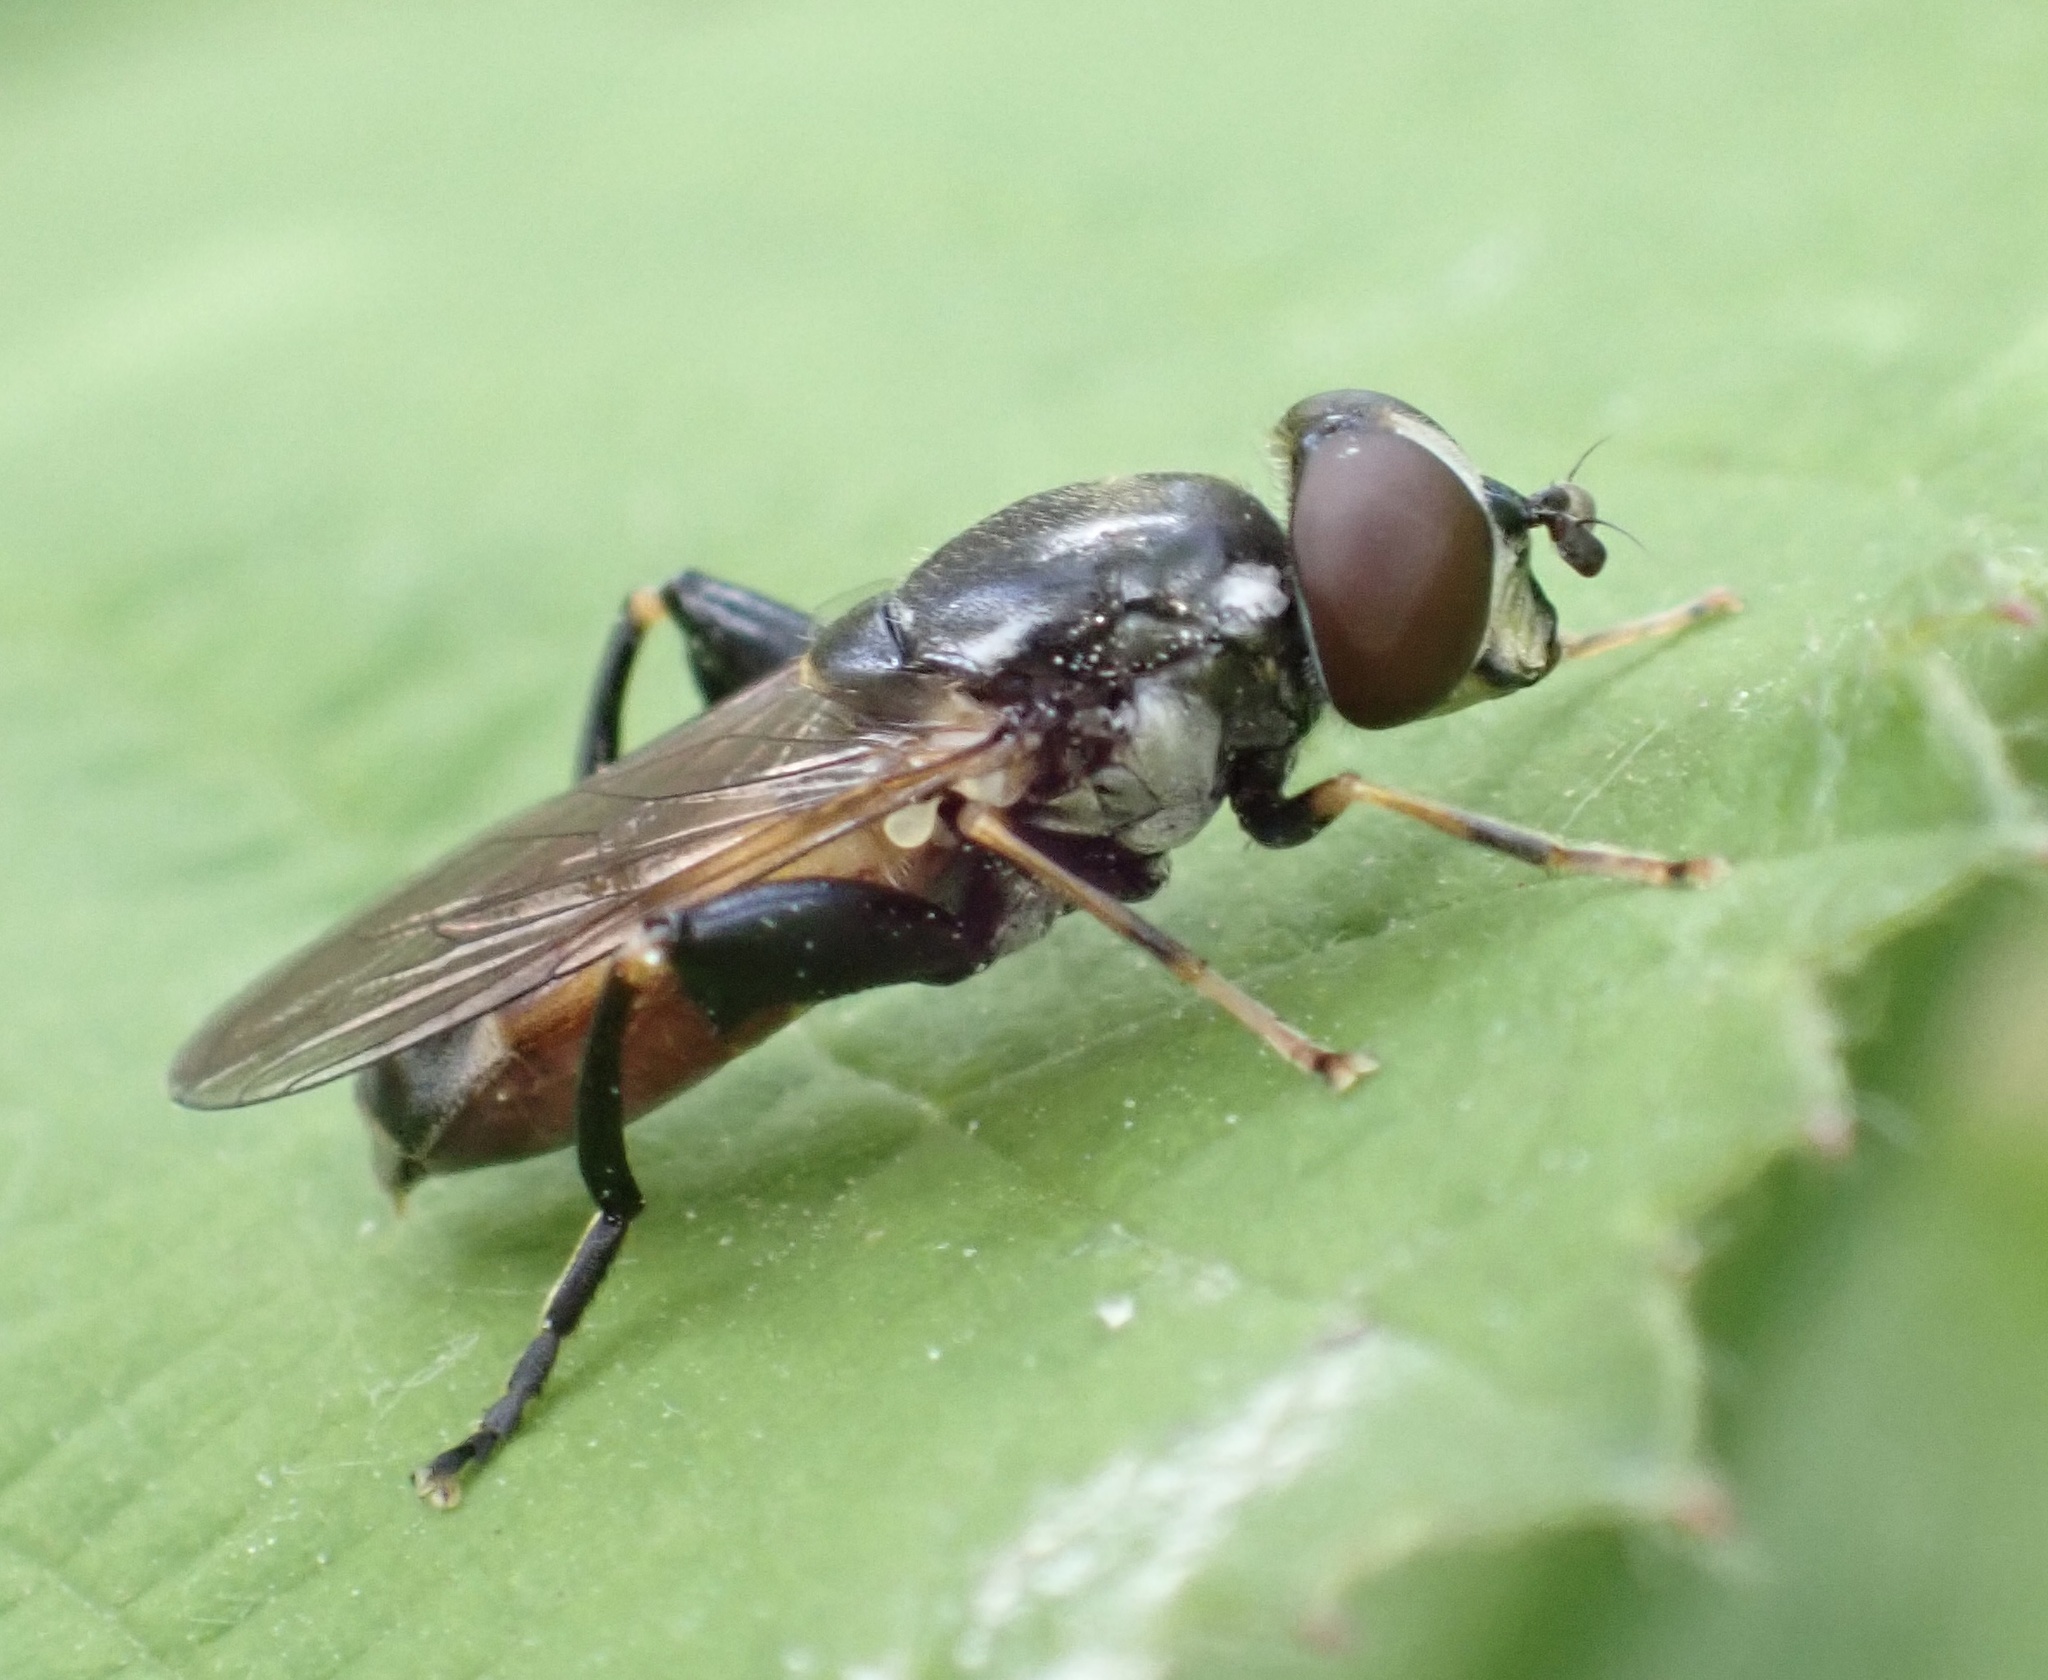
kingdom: Animalia
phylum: Arthropoda
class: Insecta
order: Diptera
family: Syrphidae
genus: Tropidia
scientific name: Tropidia scita
